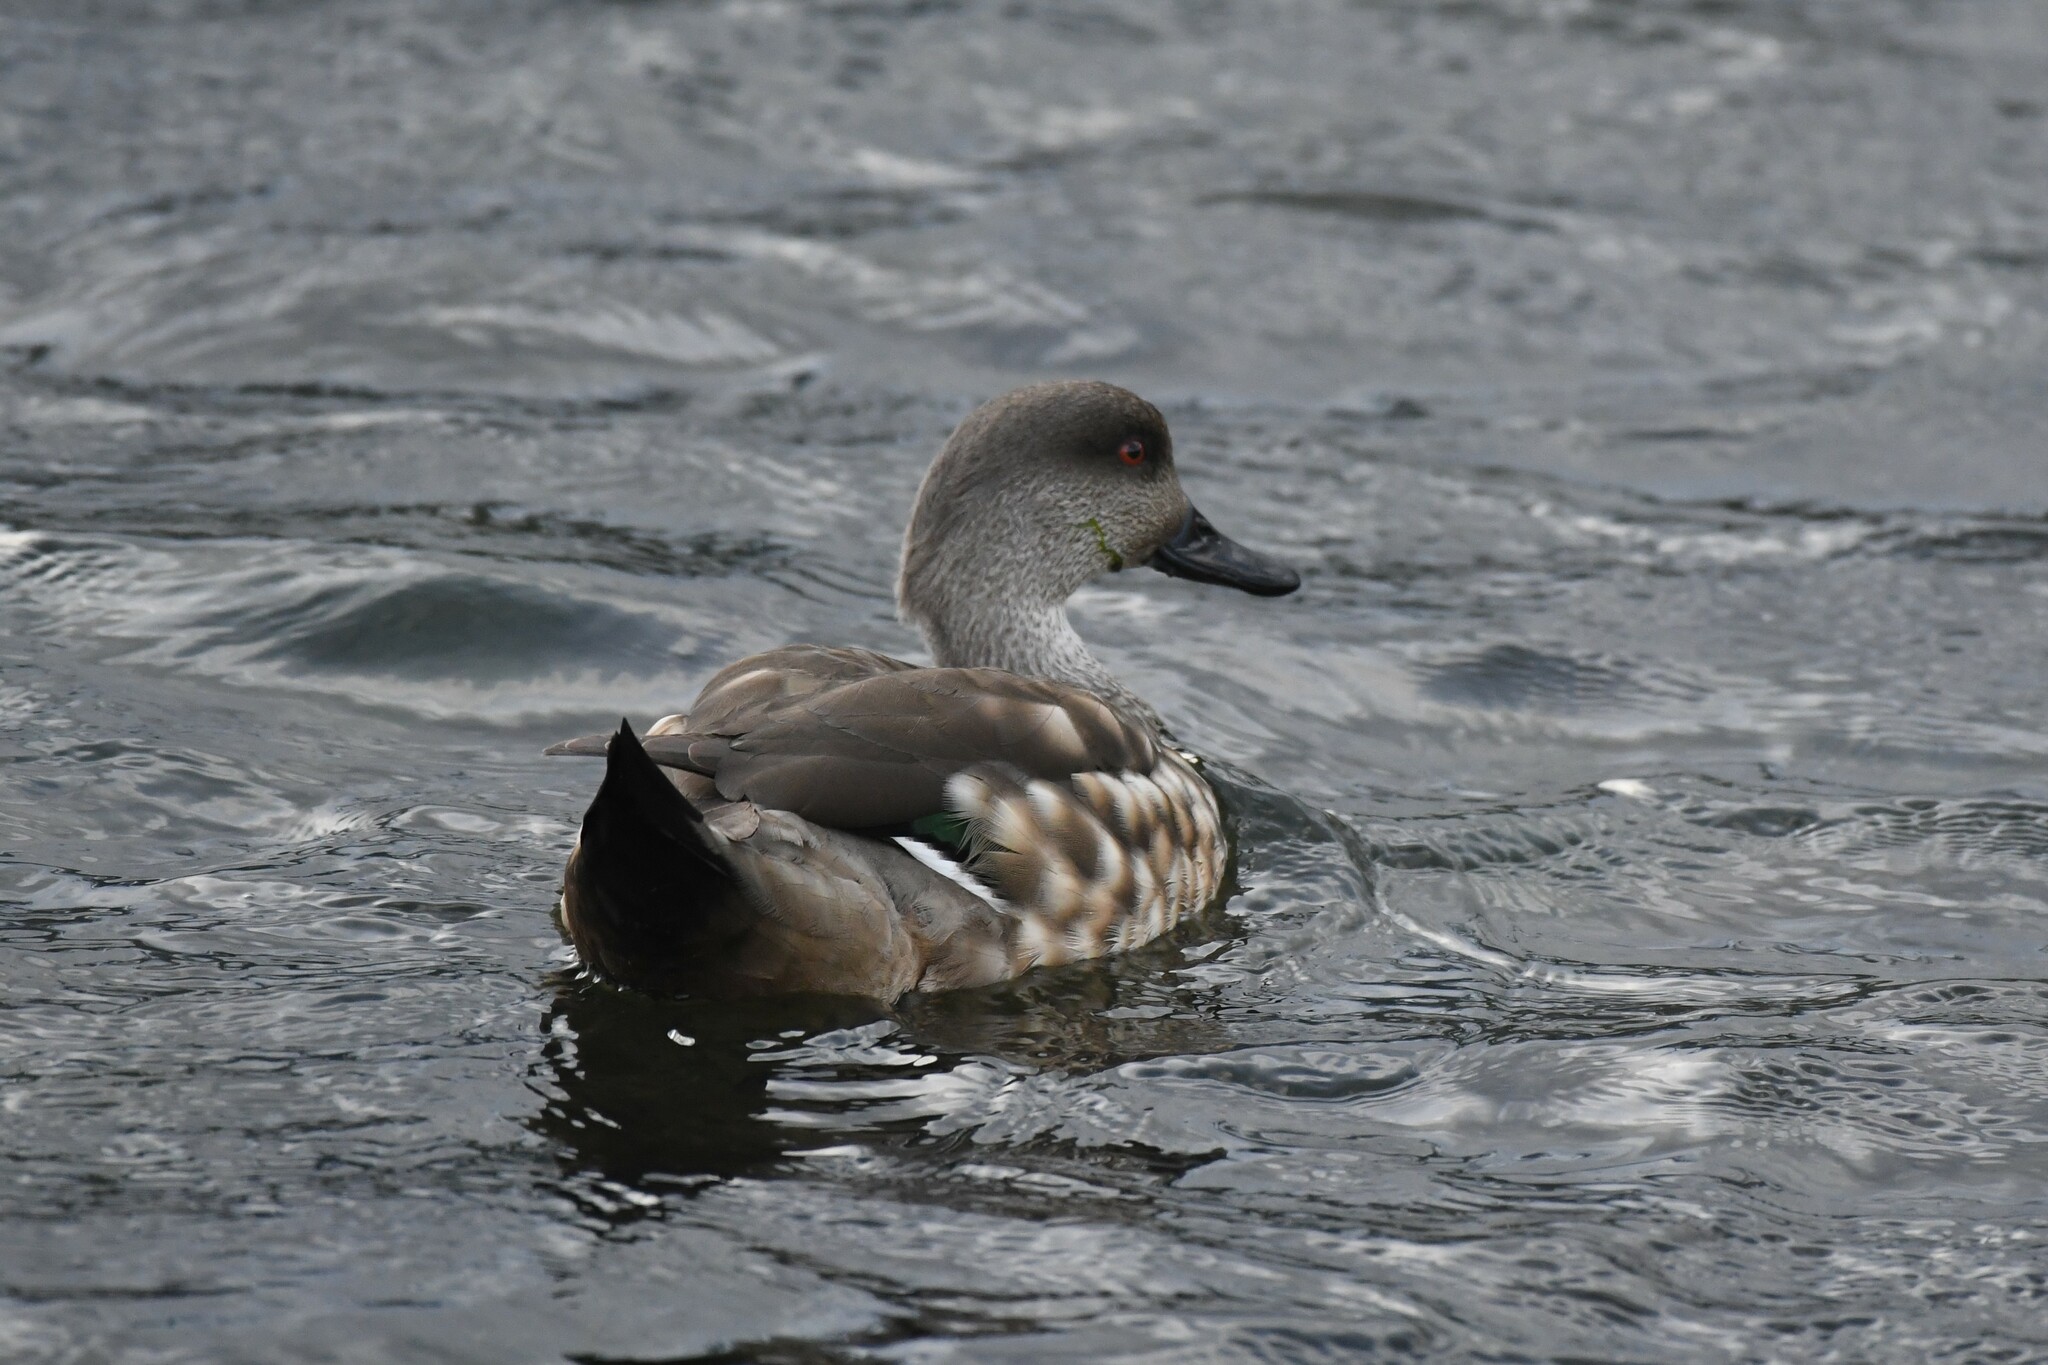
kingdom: Animalia
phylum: Chordata
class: Aves
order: Anseriformes
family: Anatidae
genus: Lophonetta
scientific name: Lophonetta specularioides
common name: Crested duck
